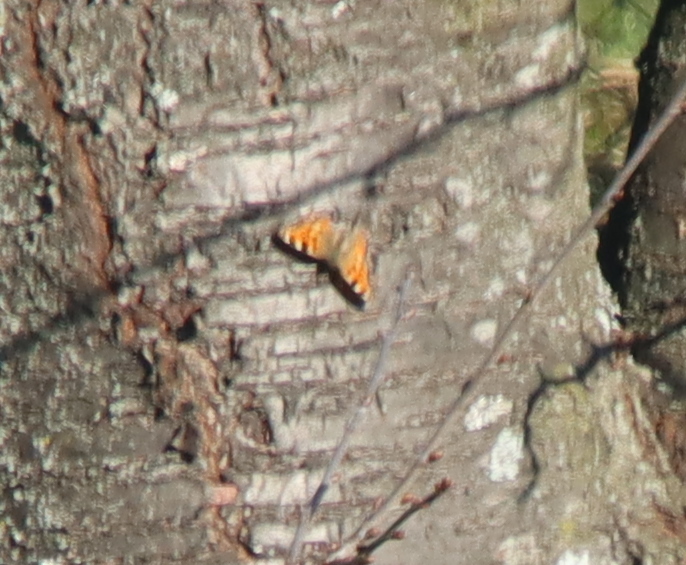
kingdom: Animalia
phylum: Arthropoda
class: Insecta
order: Lepidoptera
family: Nymphalidae
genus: Aglais
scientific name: Aglais urticae
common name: Small tortoiseshell
